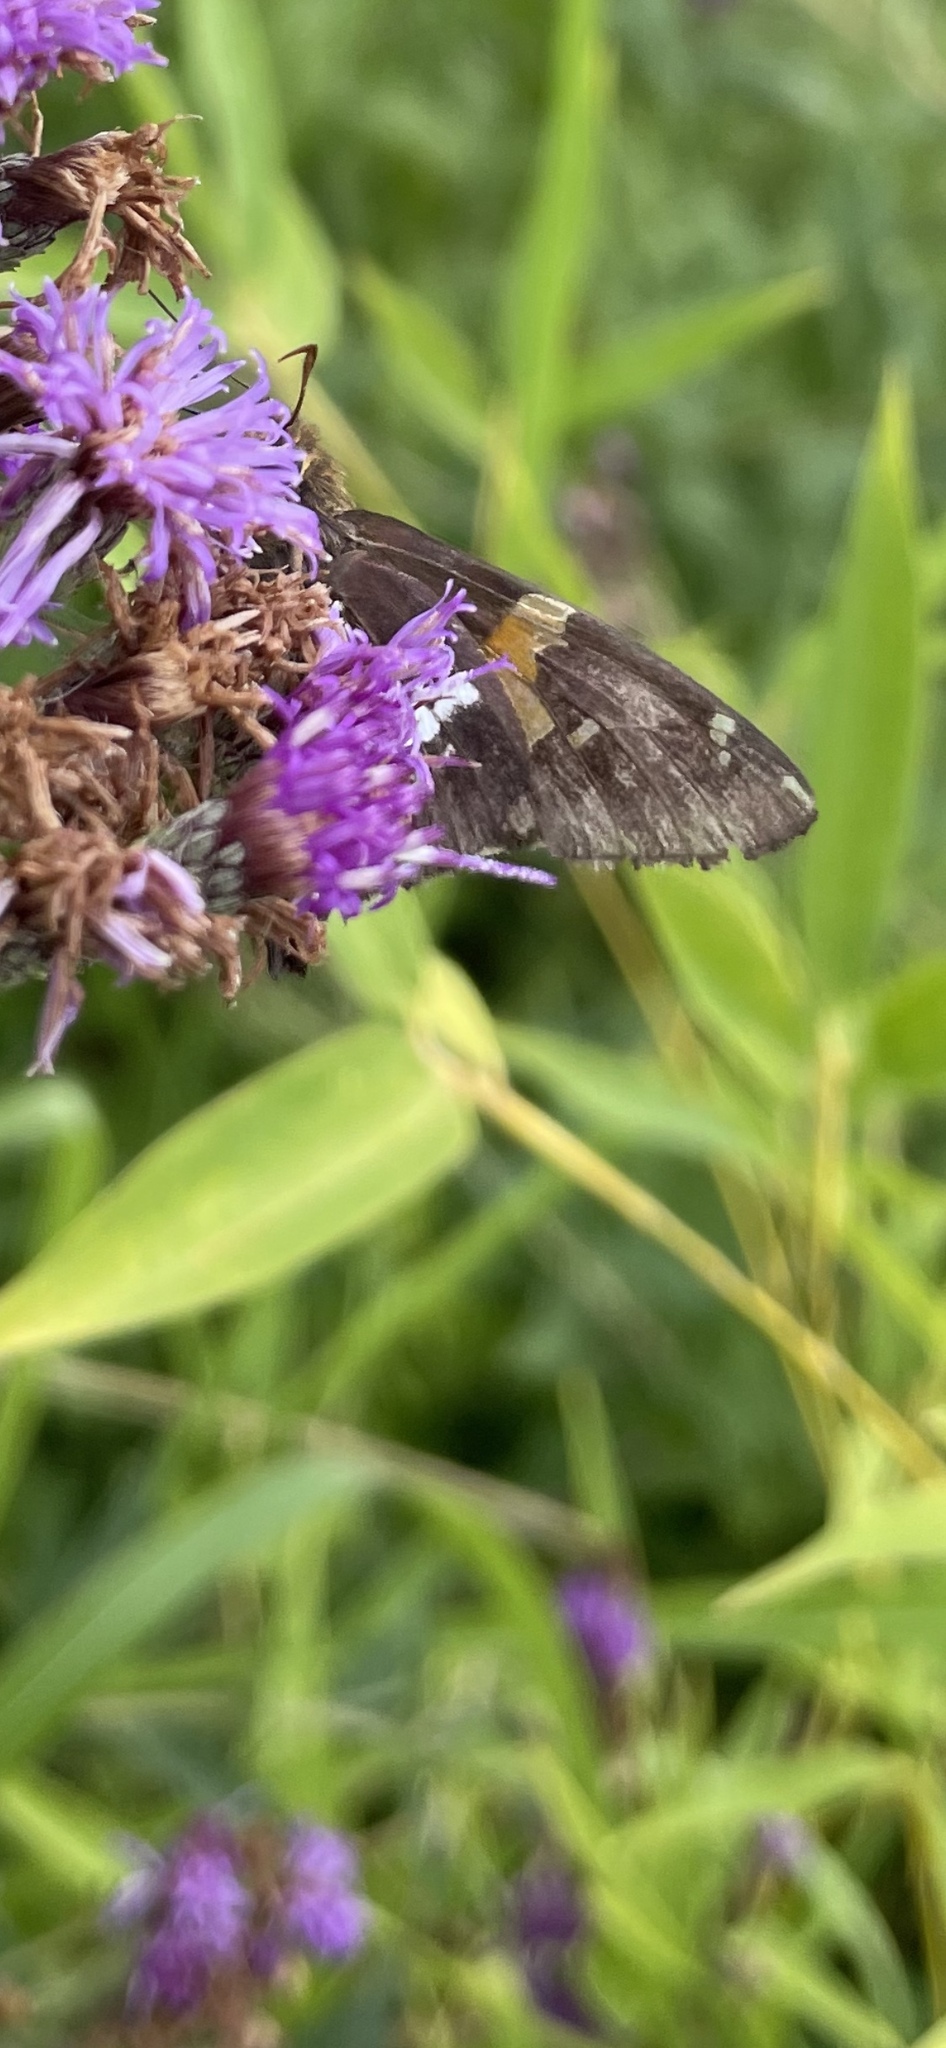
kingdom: Animalia
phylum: Arthropoda
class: Insecta
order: Lepidoptera
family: Hesperiidae
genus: Epargyreus
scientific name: Epargyreus clarus
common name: Silver-spotted skipper
